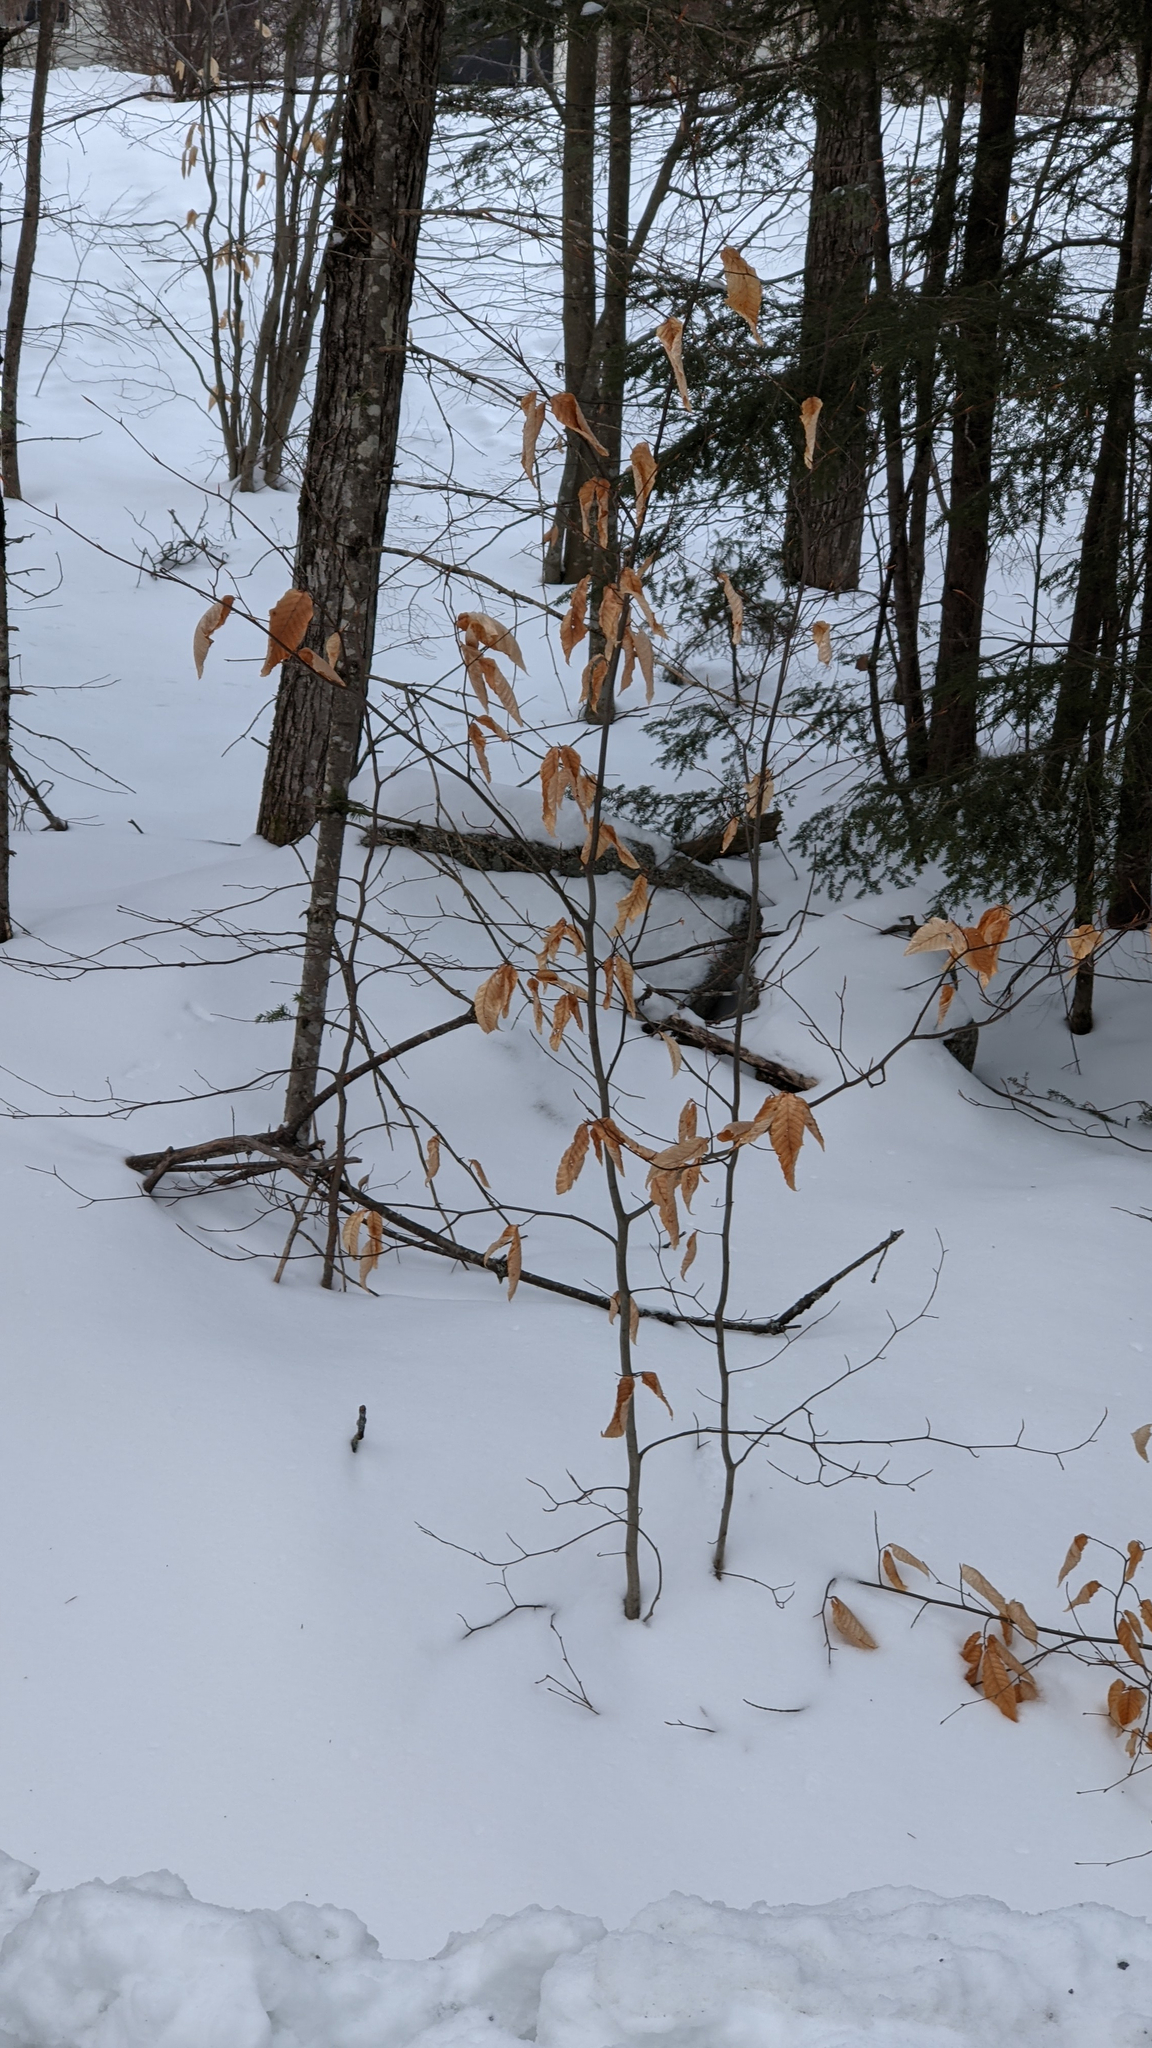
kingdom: Plantae
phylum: Tracheophyta
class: Magnoliopsida
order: Fagales
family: Fagaceae
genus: Fagus
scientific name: Fagus grandifolia
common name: American beech
